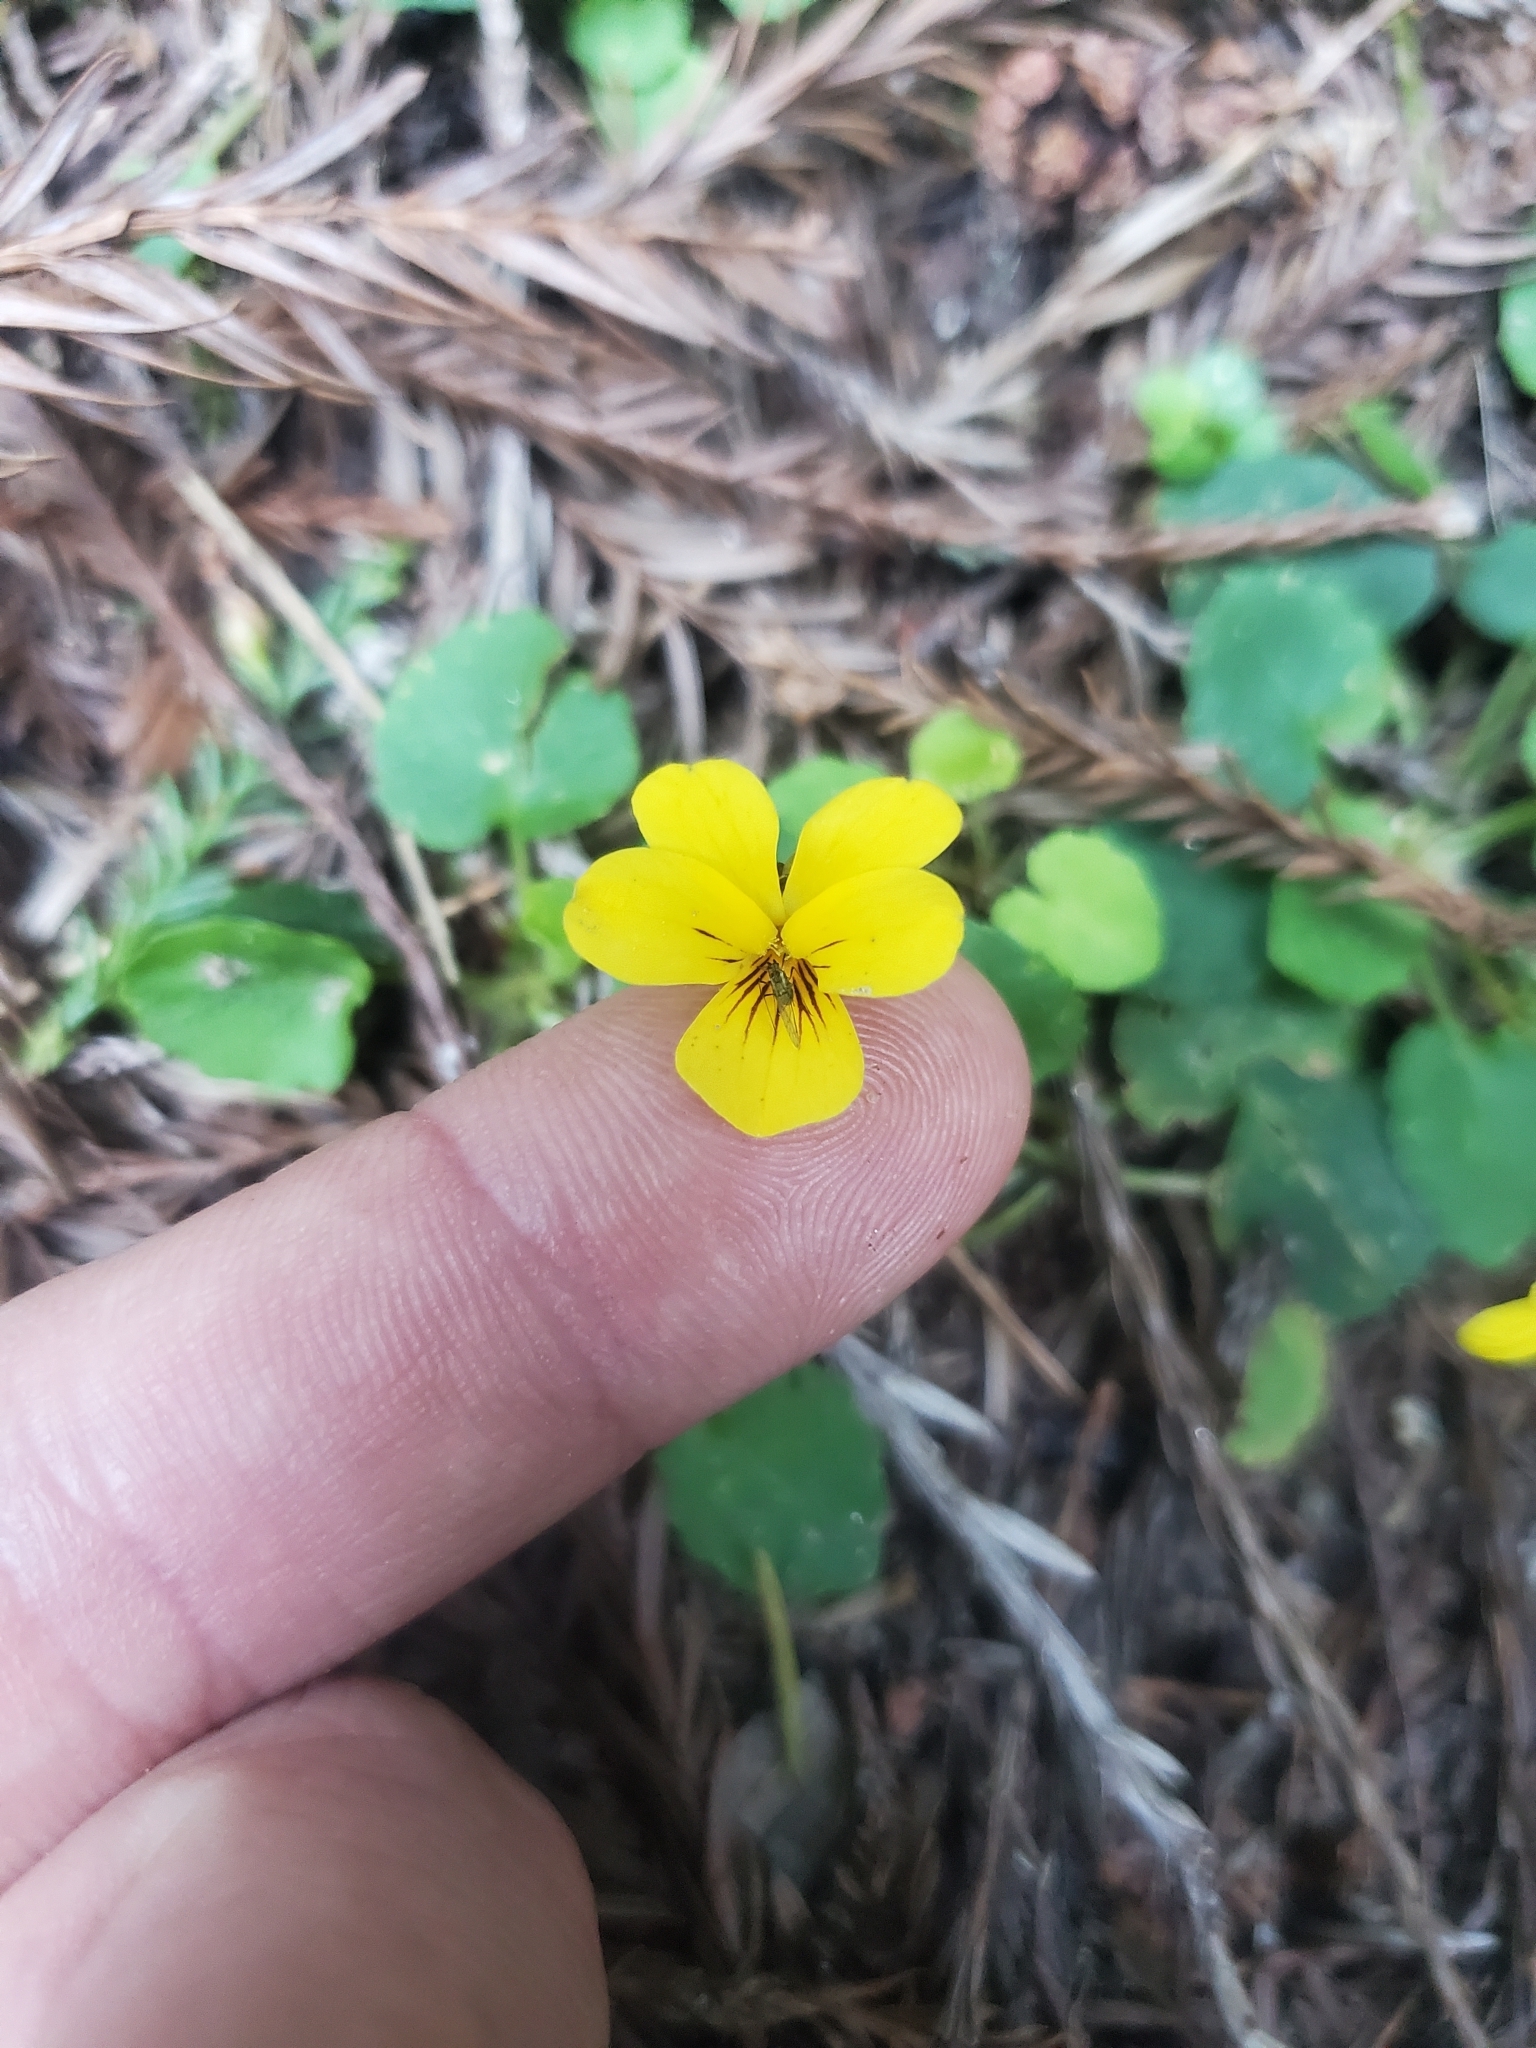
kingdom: Plantae
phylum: Tracheophyta
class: Magnoliopsida
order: Malpighiales
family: Violaceae
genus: Viola
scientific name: Viola sempervirens
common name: Evergreen violet
